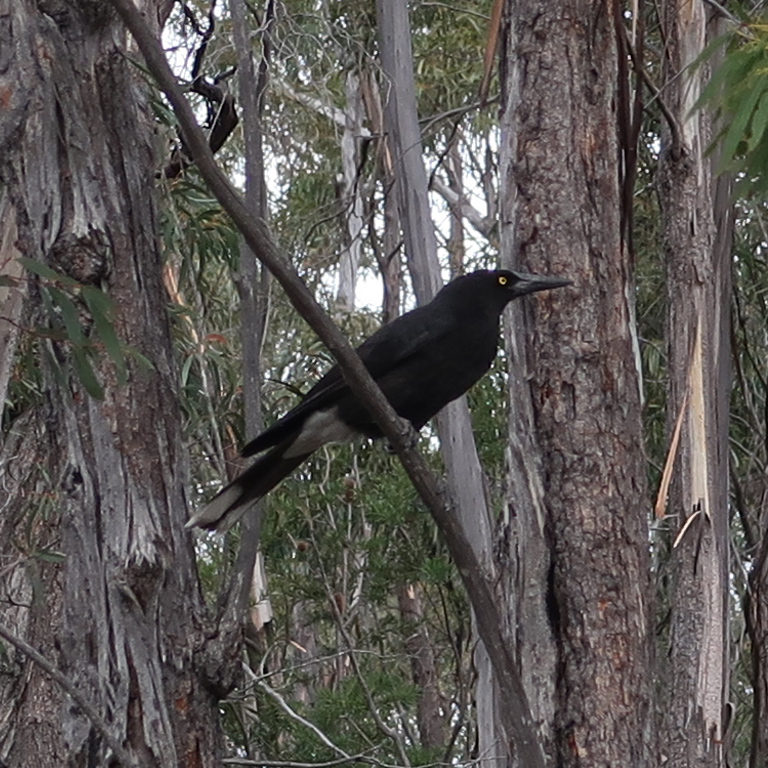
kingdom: Animalia
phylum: Chordata
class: Aves
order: Passeriformes
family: Cracticidae
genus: Strepera
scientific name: Strepera versicolor
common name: Grey currawong
